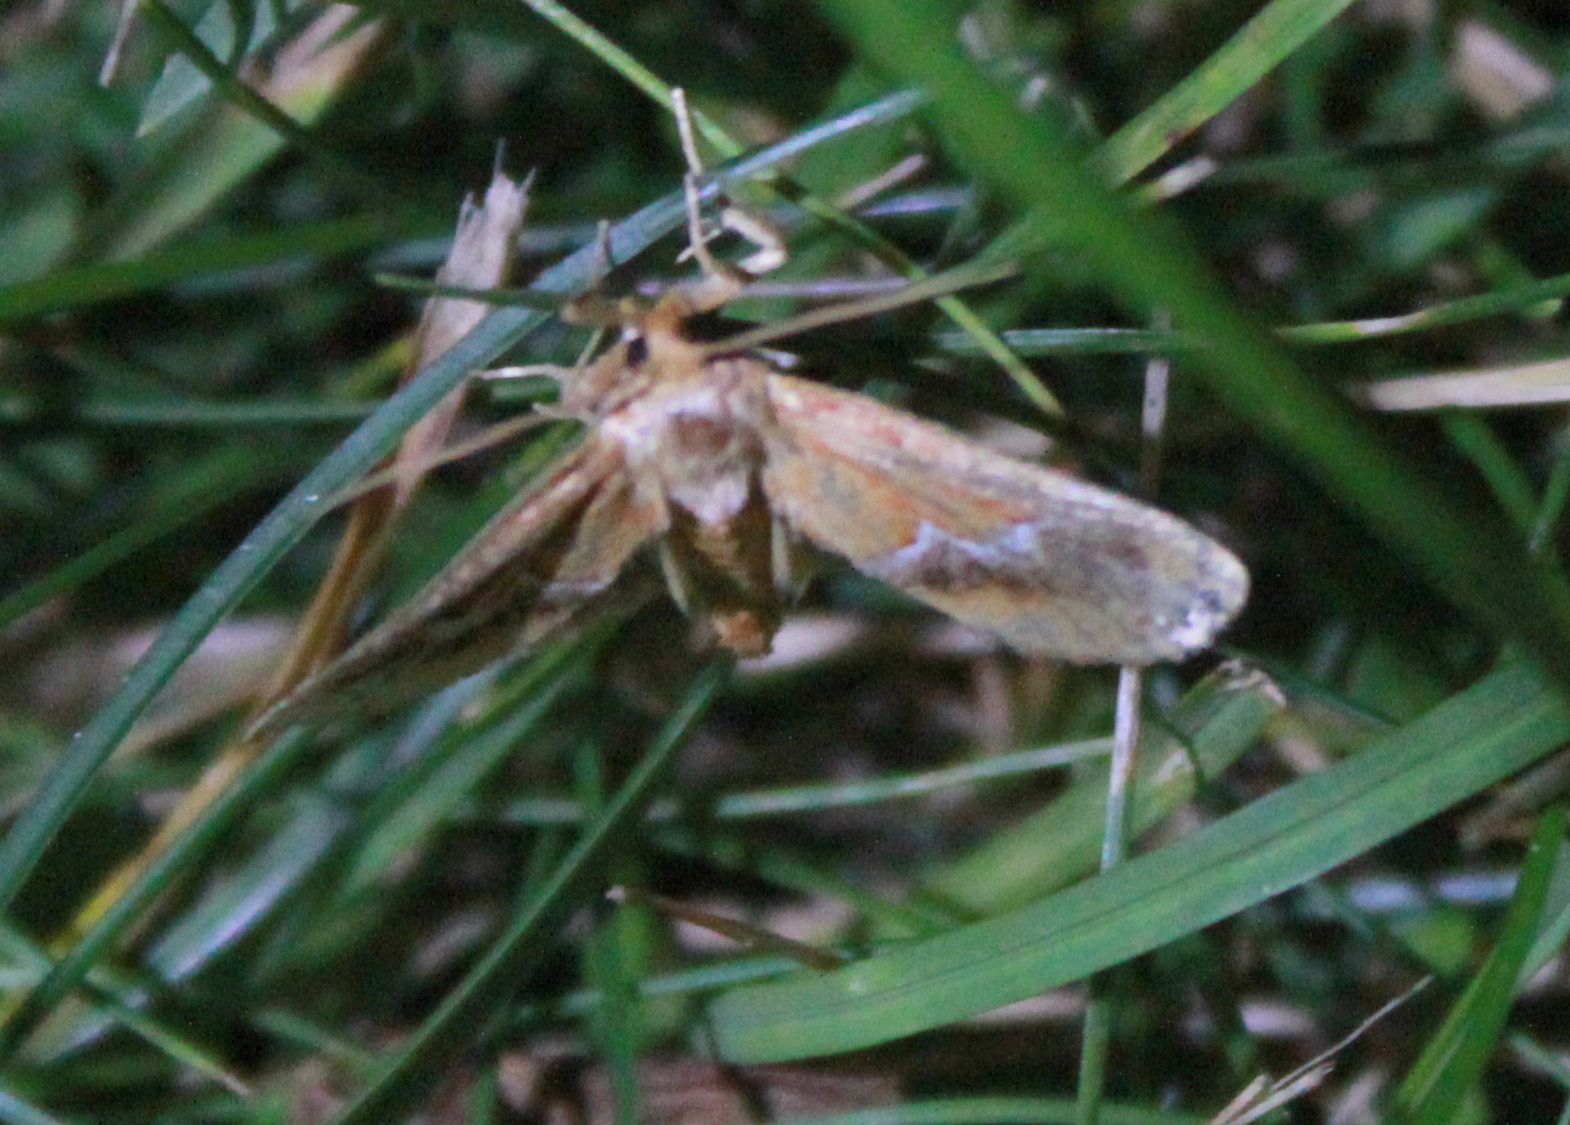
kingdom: Animalia
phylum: Arthropoda
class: Insecta
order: Lepidoptera
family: Limacodidae
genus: Lithacodes
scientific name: Lithacodes fasciola
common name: Yellow-shouldered slug moth
